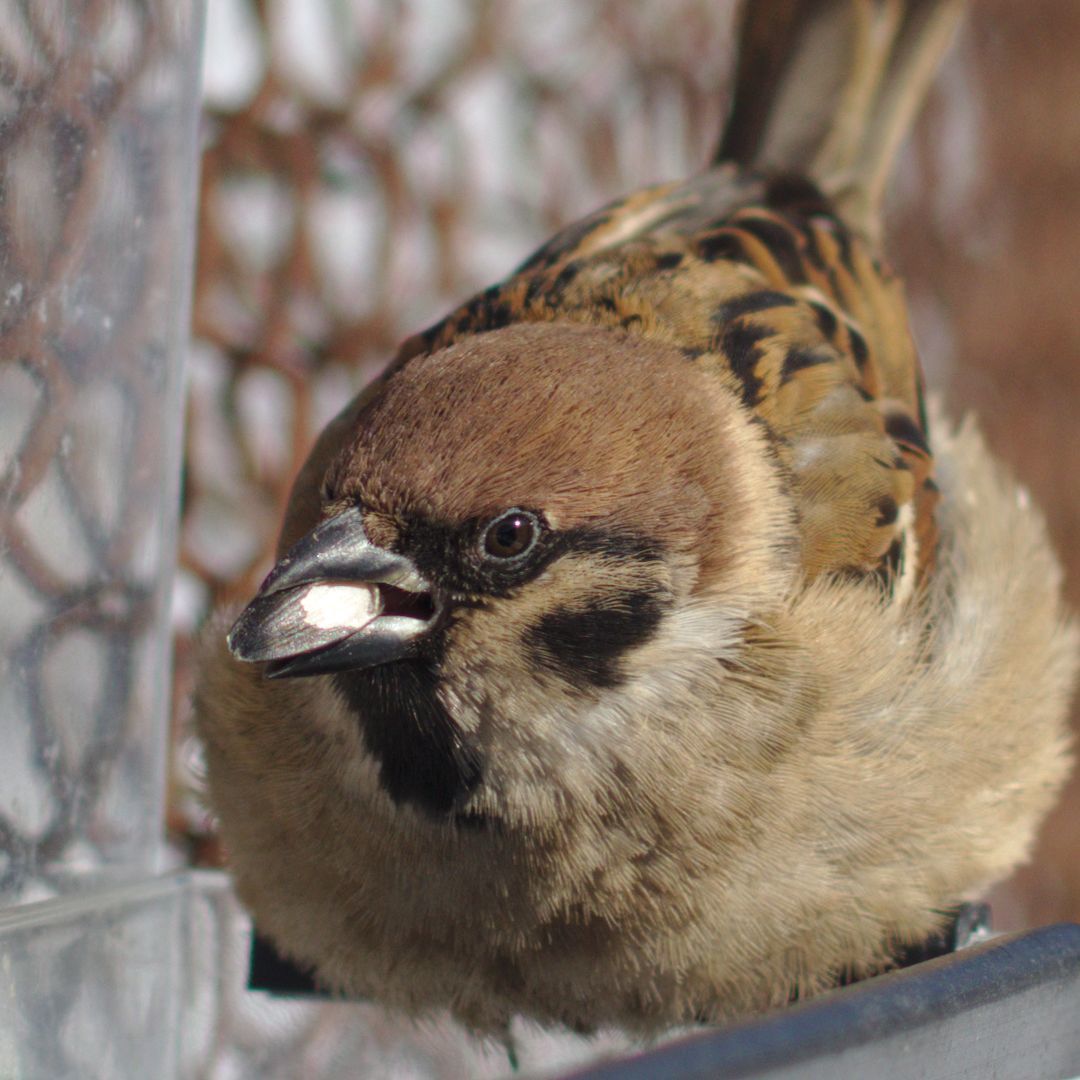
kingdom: Animalia
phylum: Chordata
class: Aves
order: Passeriformes
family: Passeridae
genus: Passer
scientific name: Passer montanus
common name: Eurasian tree sparrow
